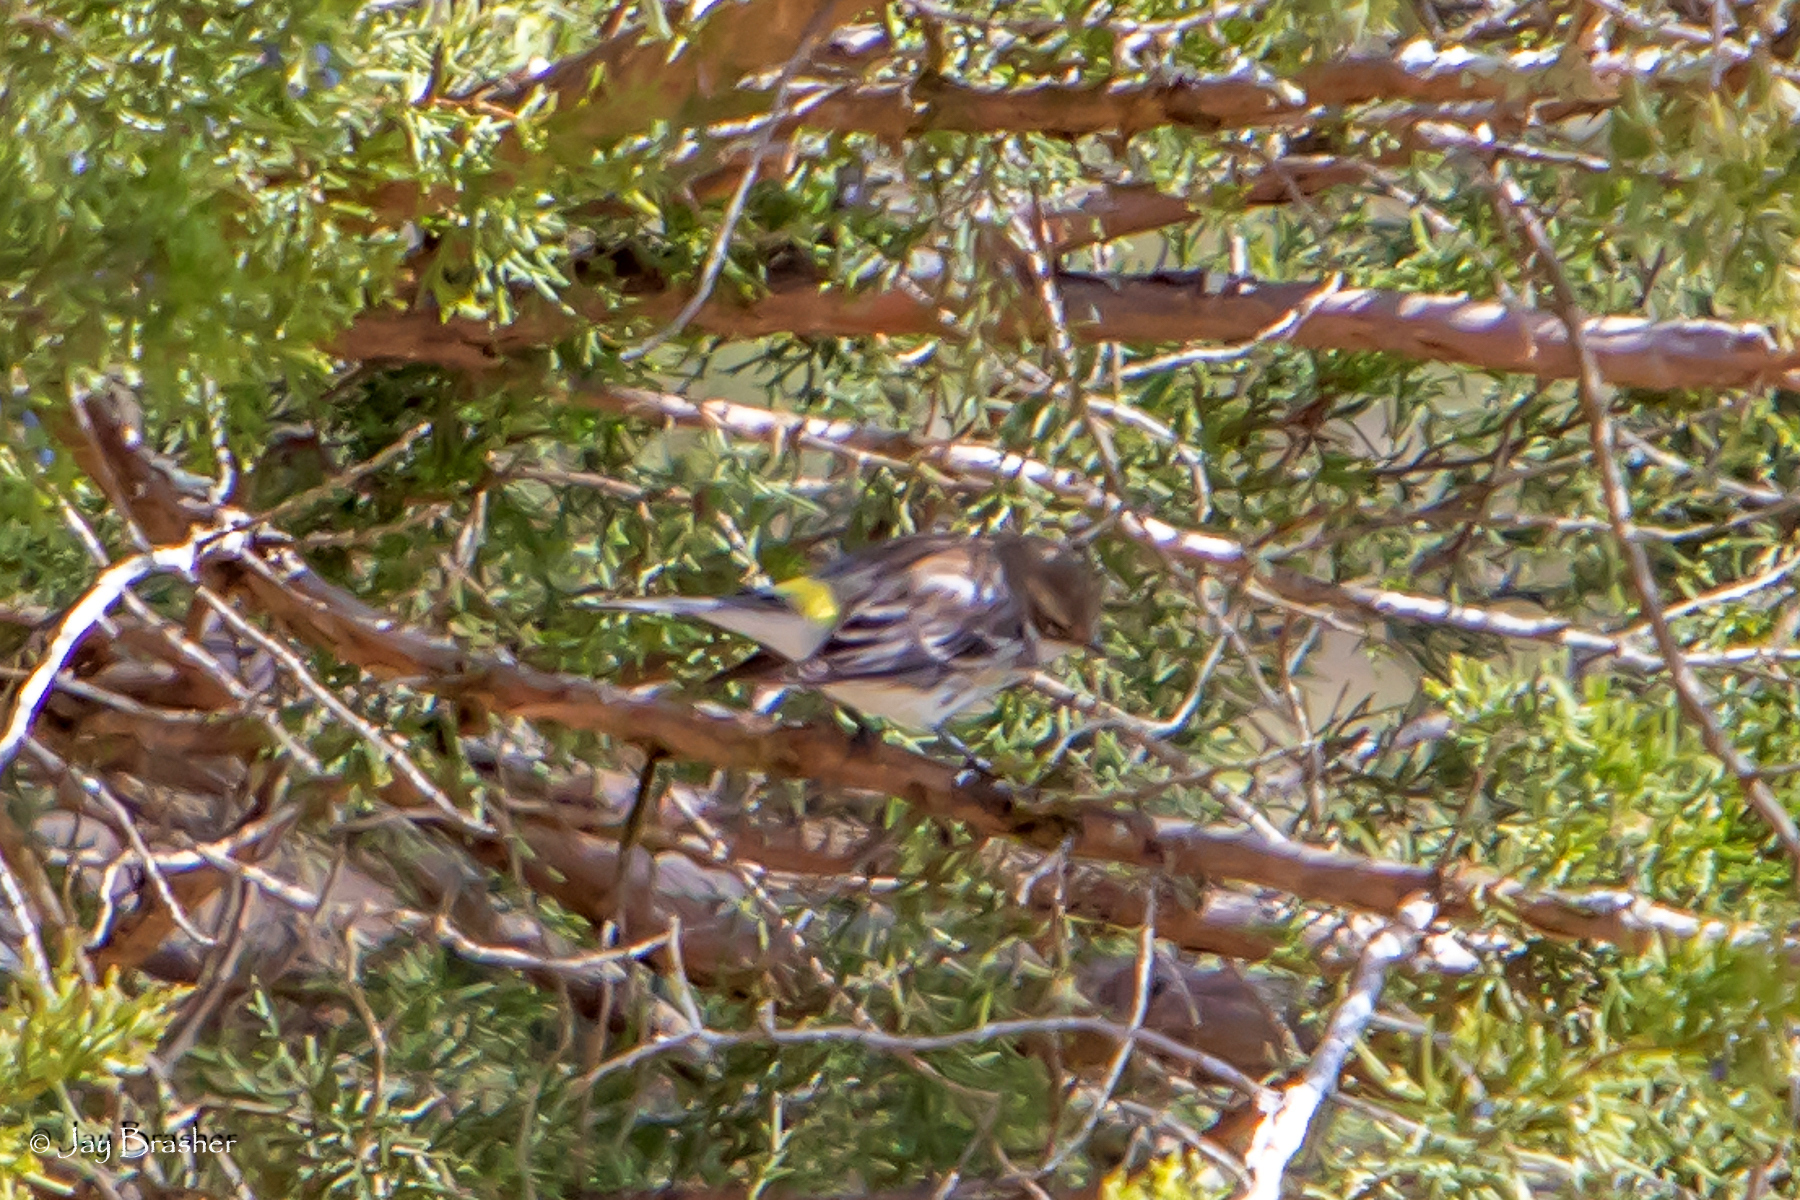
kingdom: Animalia
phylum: Chordata
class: Aves
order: Passeriformes
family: Parulidae
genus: Setophaga
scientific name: Setophaga coronata
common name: Myrtle warbler
